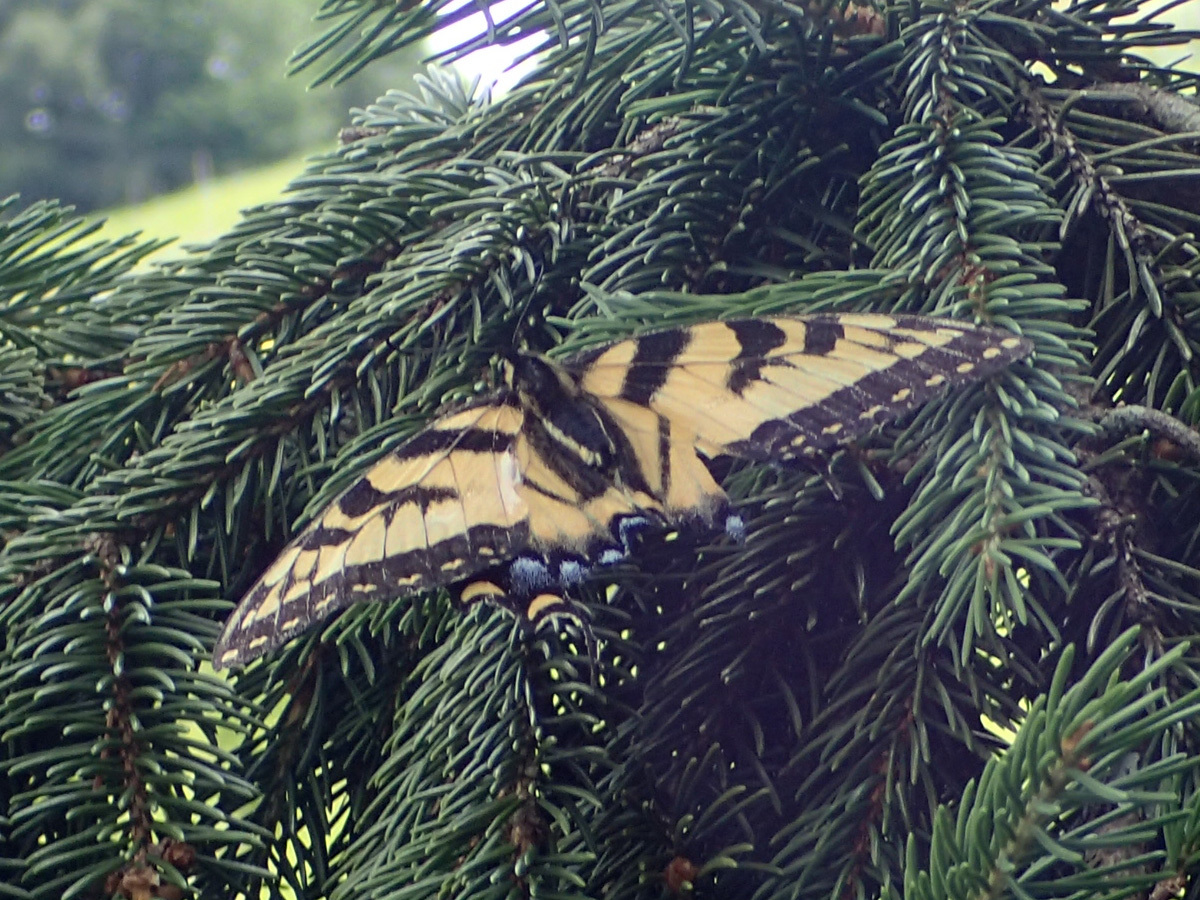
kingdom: Animalia
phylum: Arthropoda
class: Insecta
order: Lepidoptera
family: Papilionidae
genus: Papilio
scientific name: Papilio glaucus
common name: Tiger swallowtail
